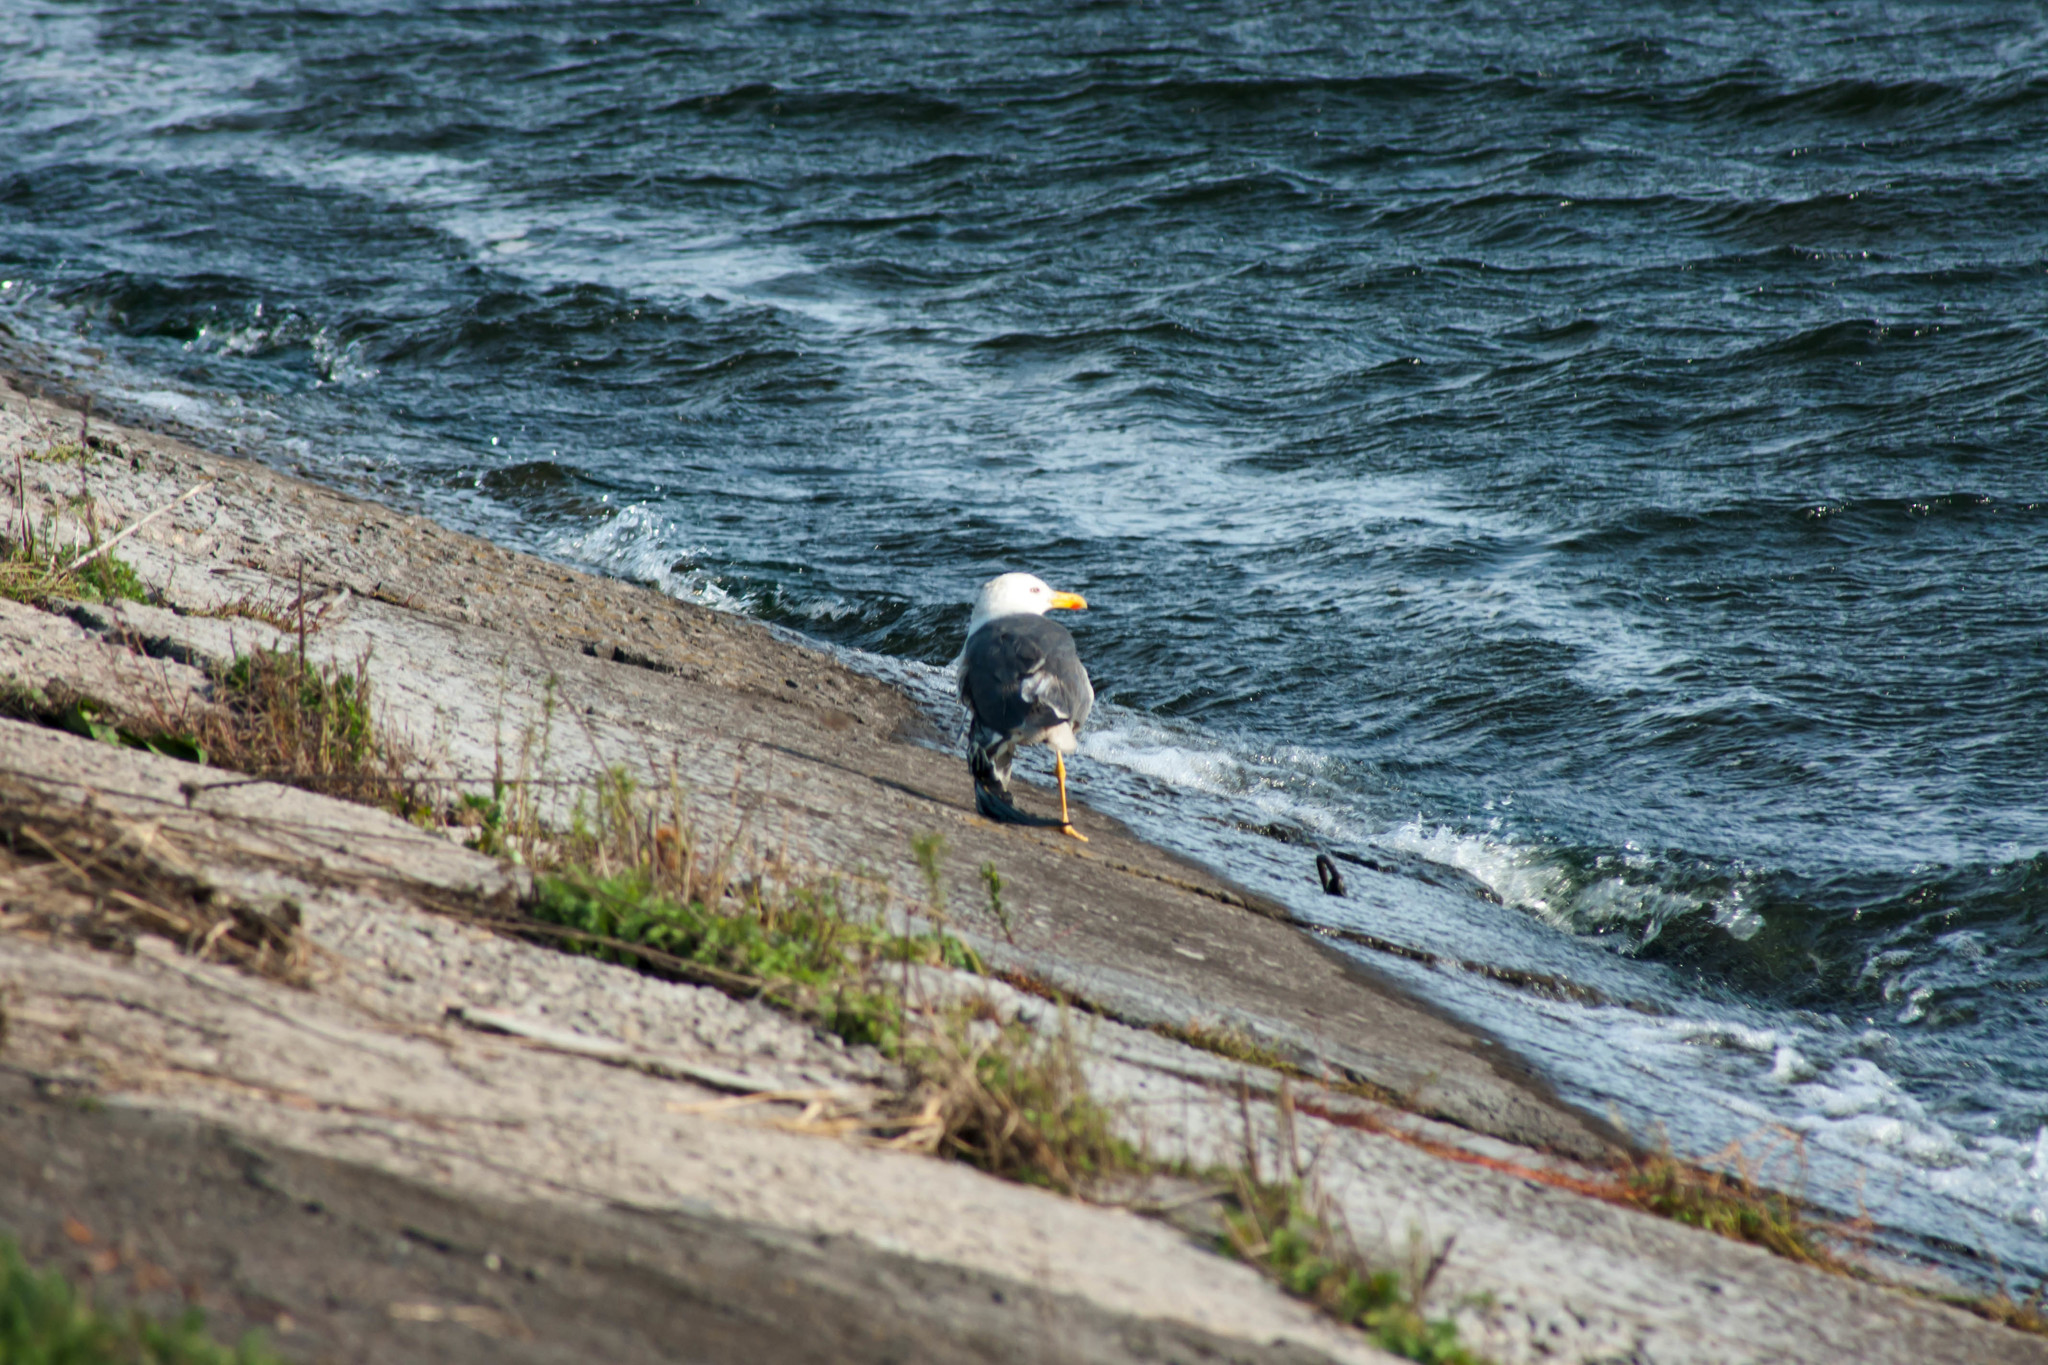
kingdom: Animalia
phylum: Chordata
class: Aves
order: Charadriiformes
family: Laridae
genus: Larus
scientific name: Larus fuscus
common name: Lesser black-backed gull
